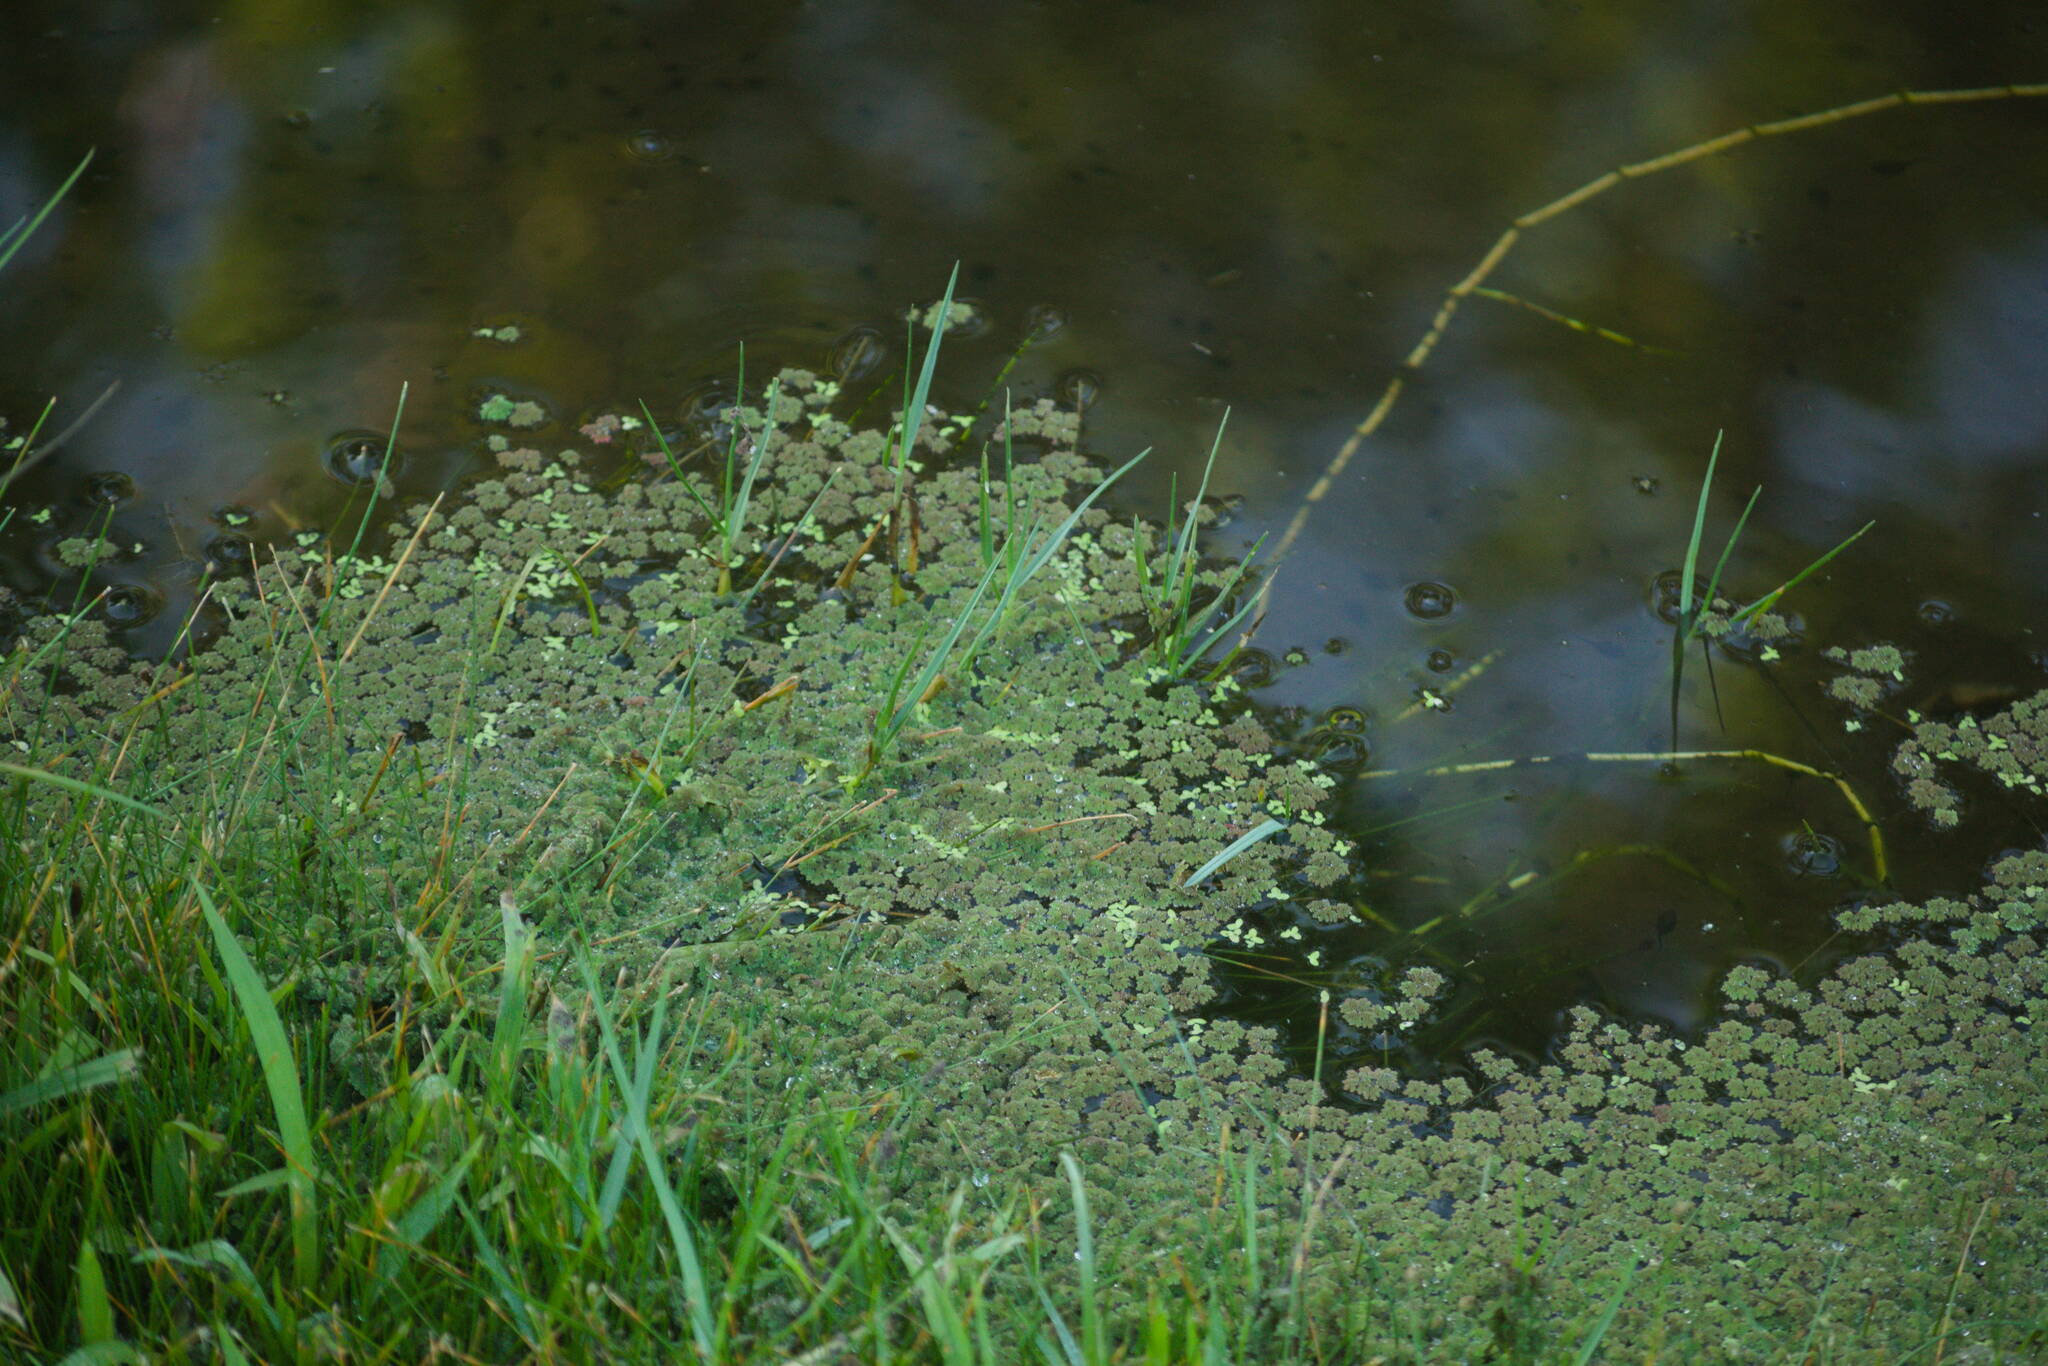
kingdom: Plantae
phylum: Tracheophyta
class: Liliopsida
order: Alismatales
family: Araceae
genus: Lemna
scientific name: Lemna aequinoctialis
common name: Duckweed
